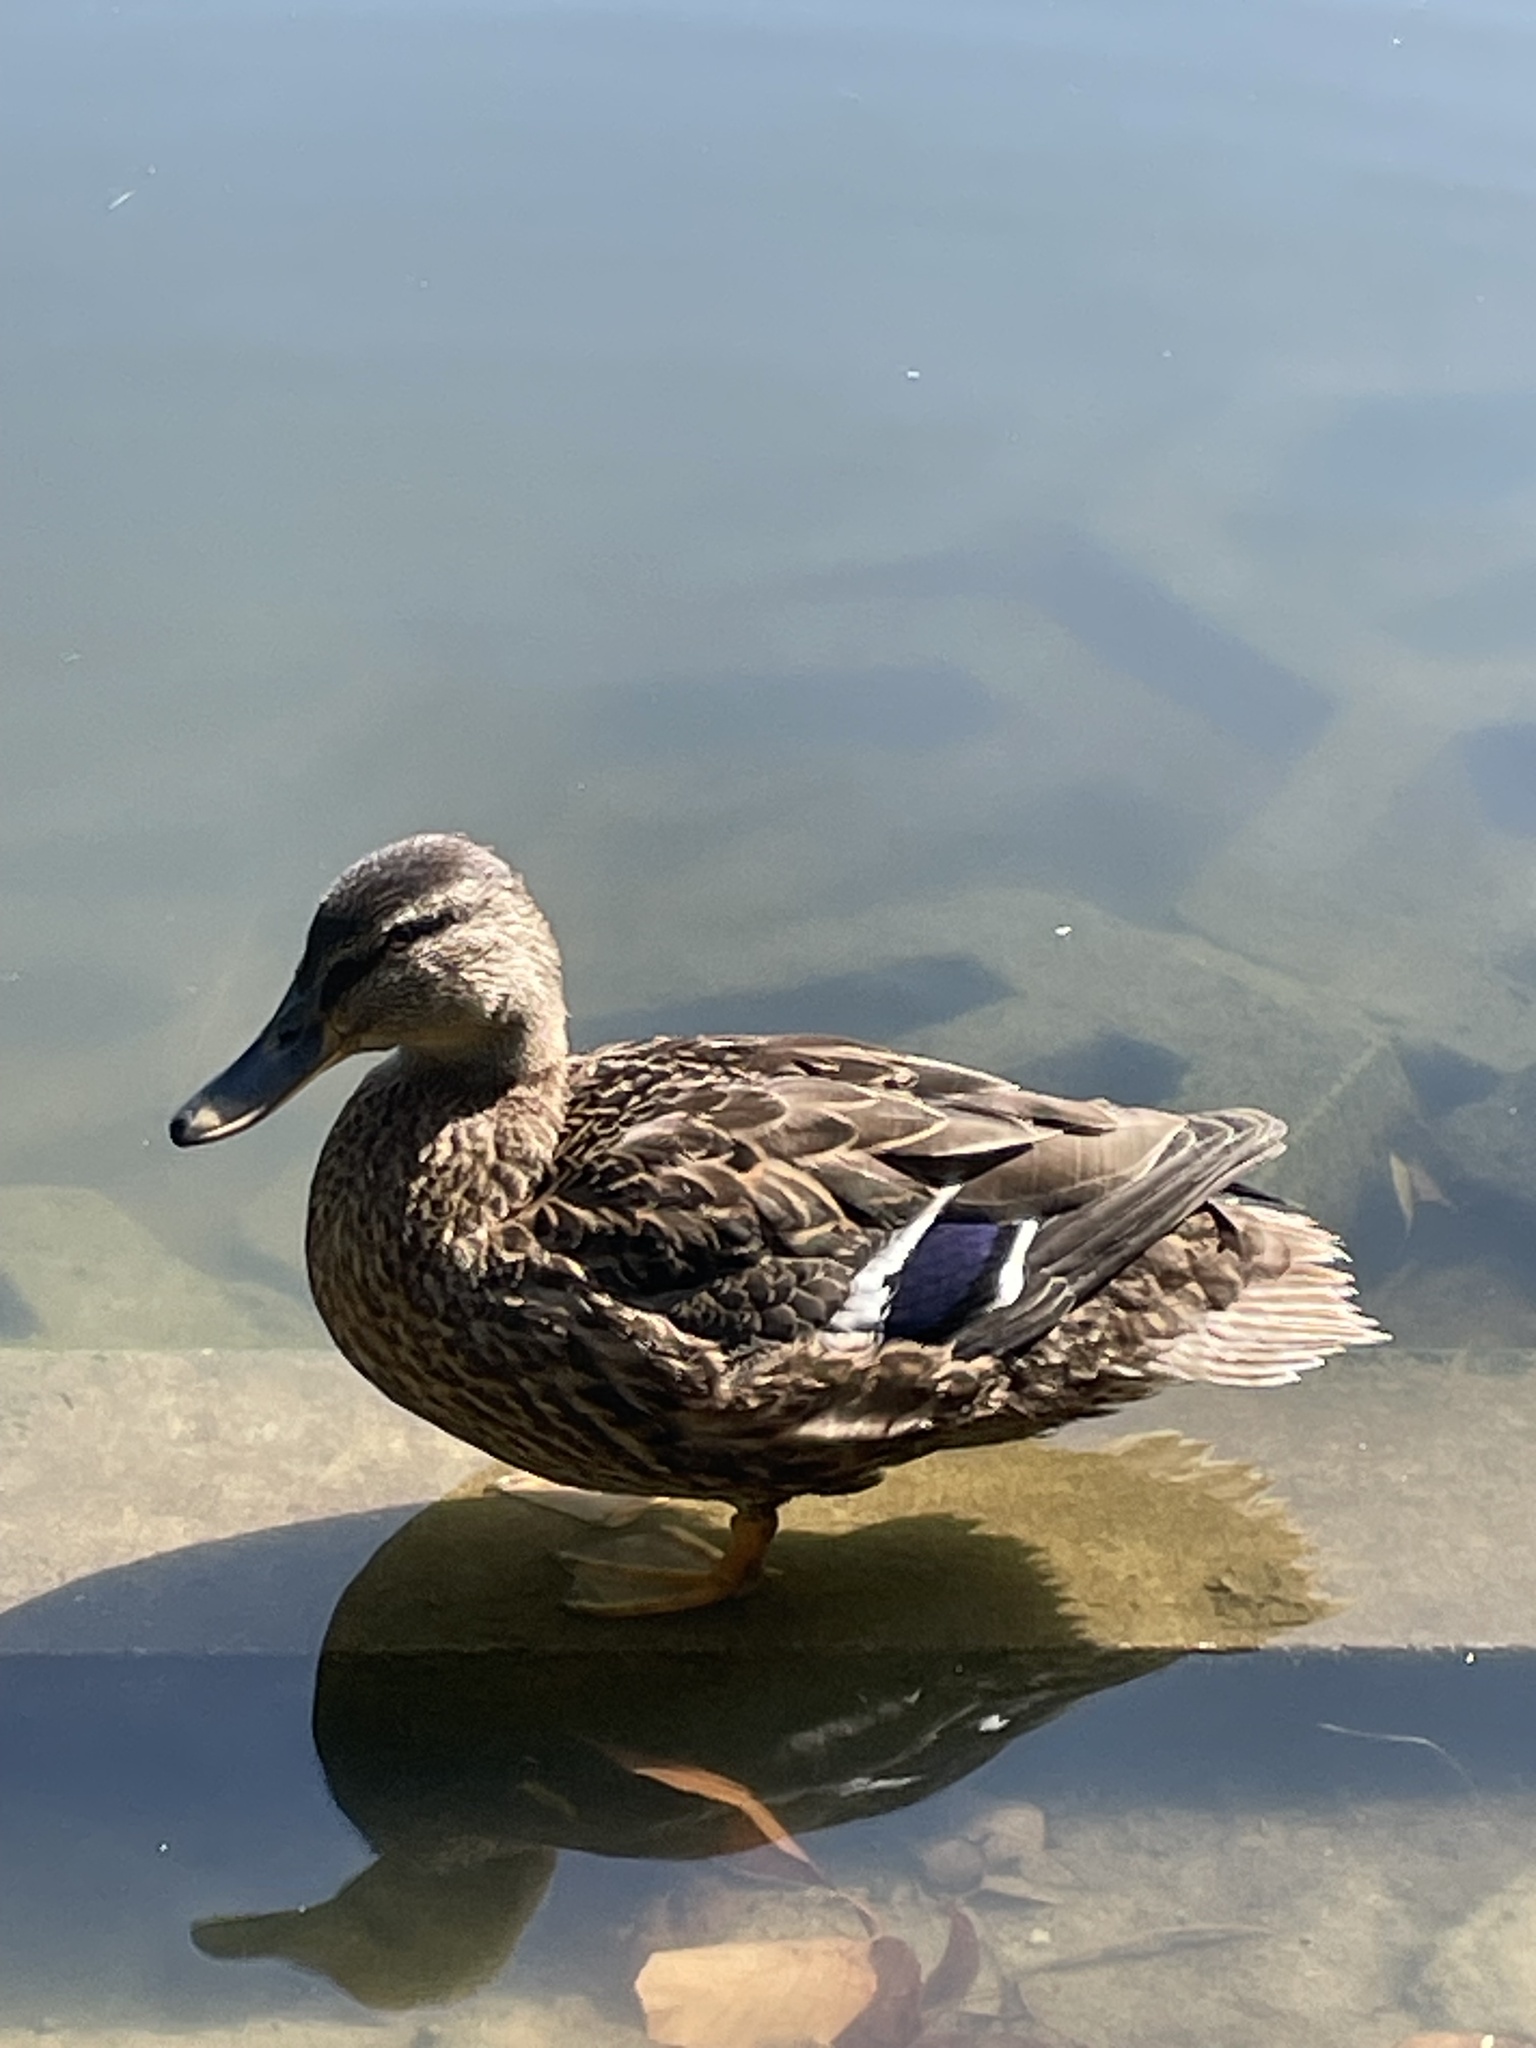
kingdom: Animalia
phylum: Chordata
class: Aves
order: Anseriformes
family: Anatidae
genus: Anas
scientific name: Anas platyrhynchos
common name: Mallard
